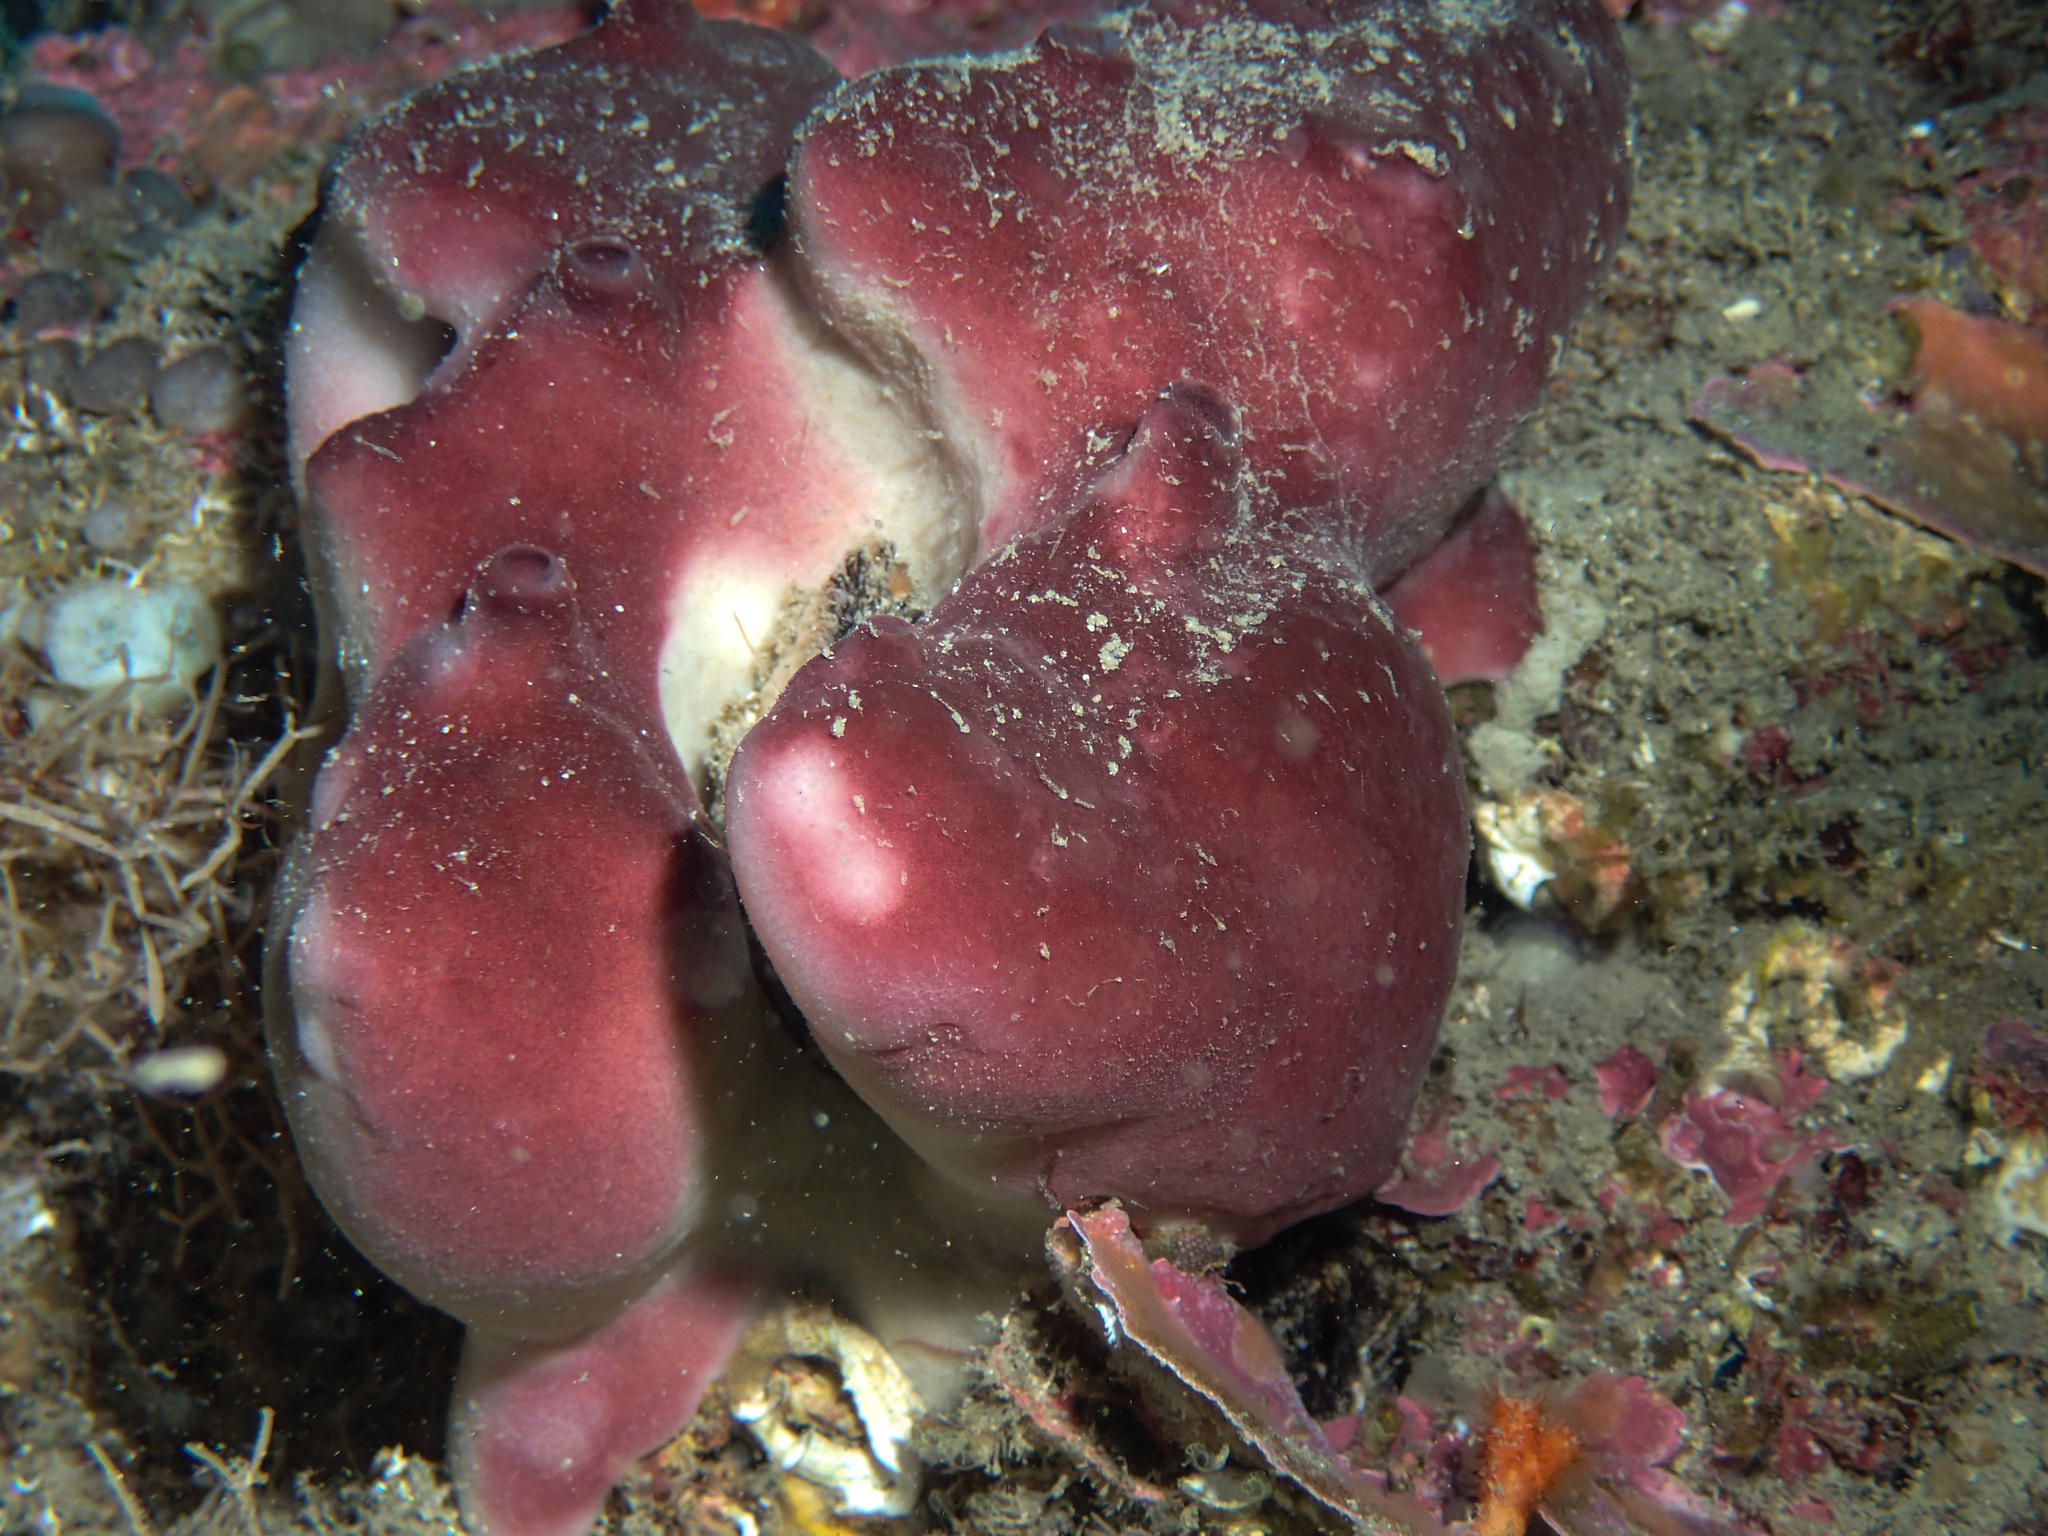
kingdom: Animalia
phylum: Porifera
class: Demospongiae
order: Haplosclerida
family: Petrosiidae
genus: Petrosia
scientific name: Petrosia ficiformis
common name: Stony sponge
